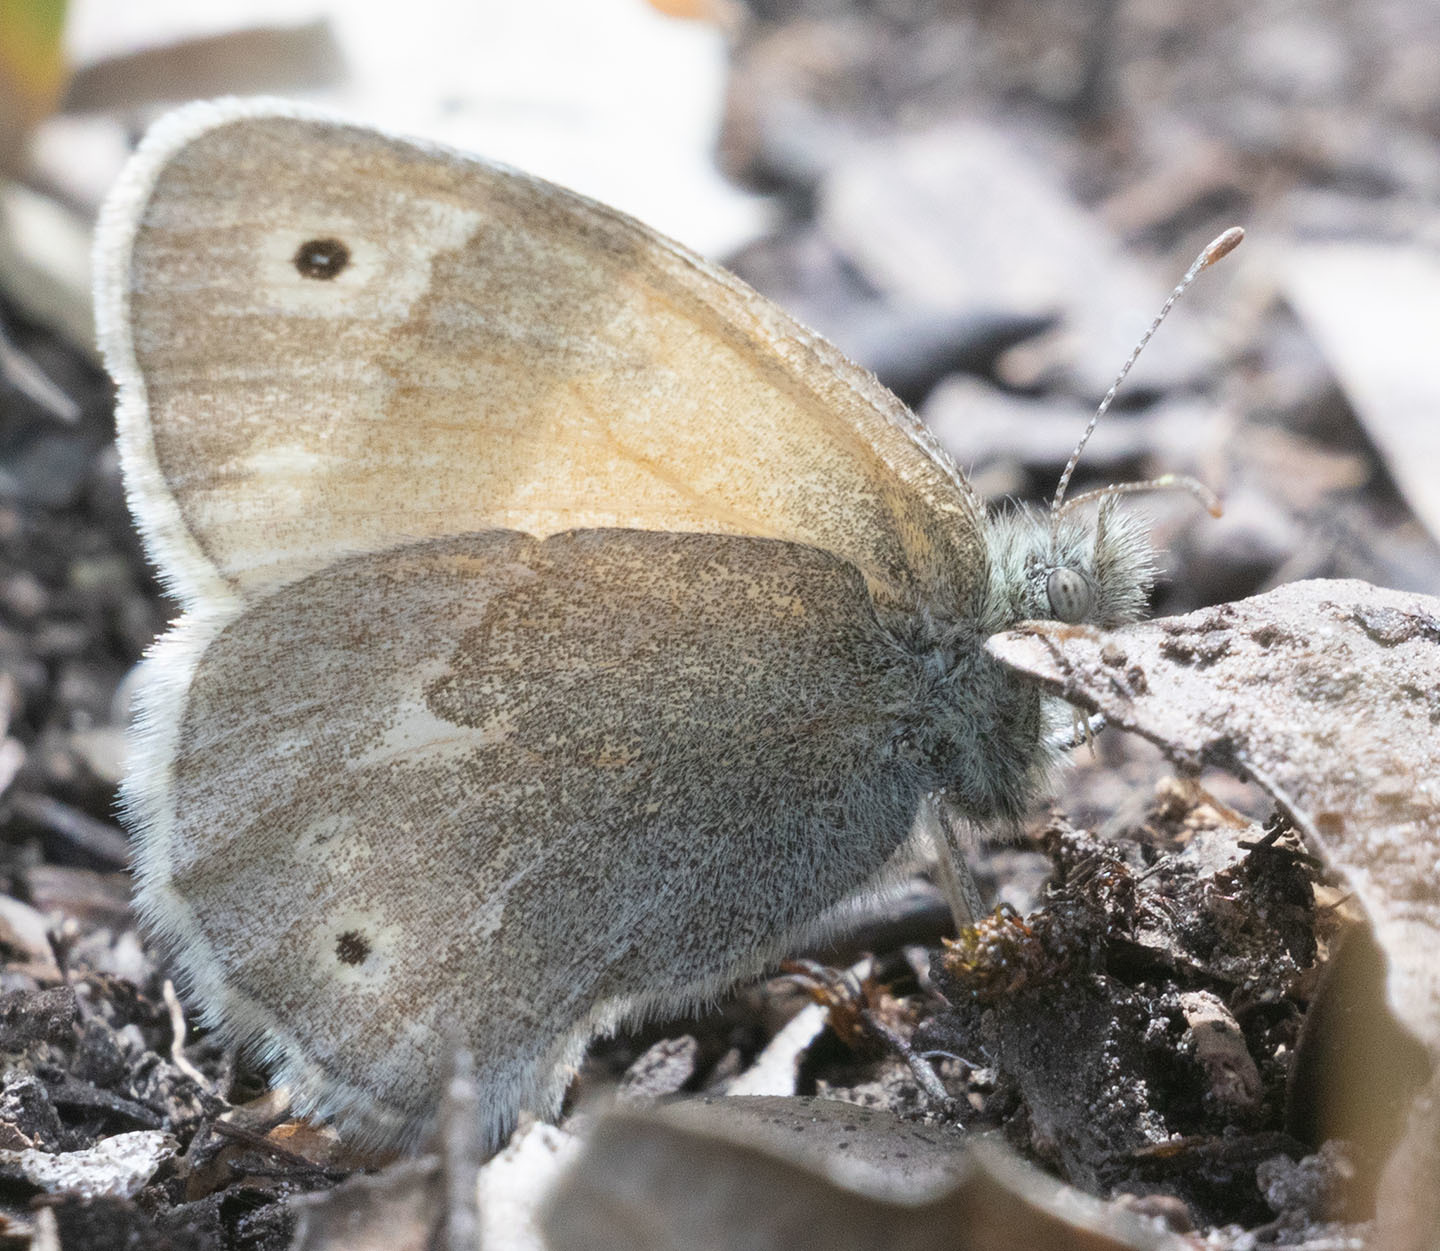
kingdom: Animalia
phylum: Arthropoda
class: Insecta
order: Lepidoptera
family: Nymphalidae
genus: Coenonympha
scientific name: Coenonympha california
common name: Common ringlet
